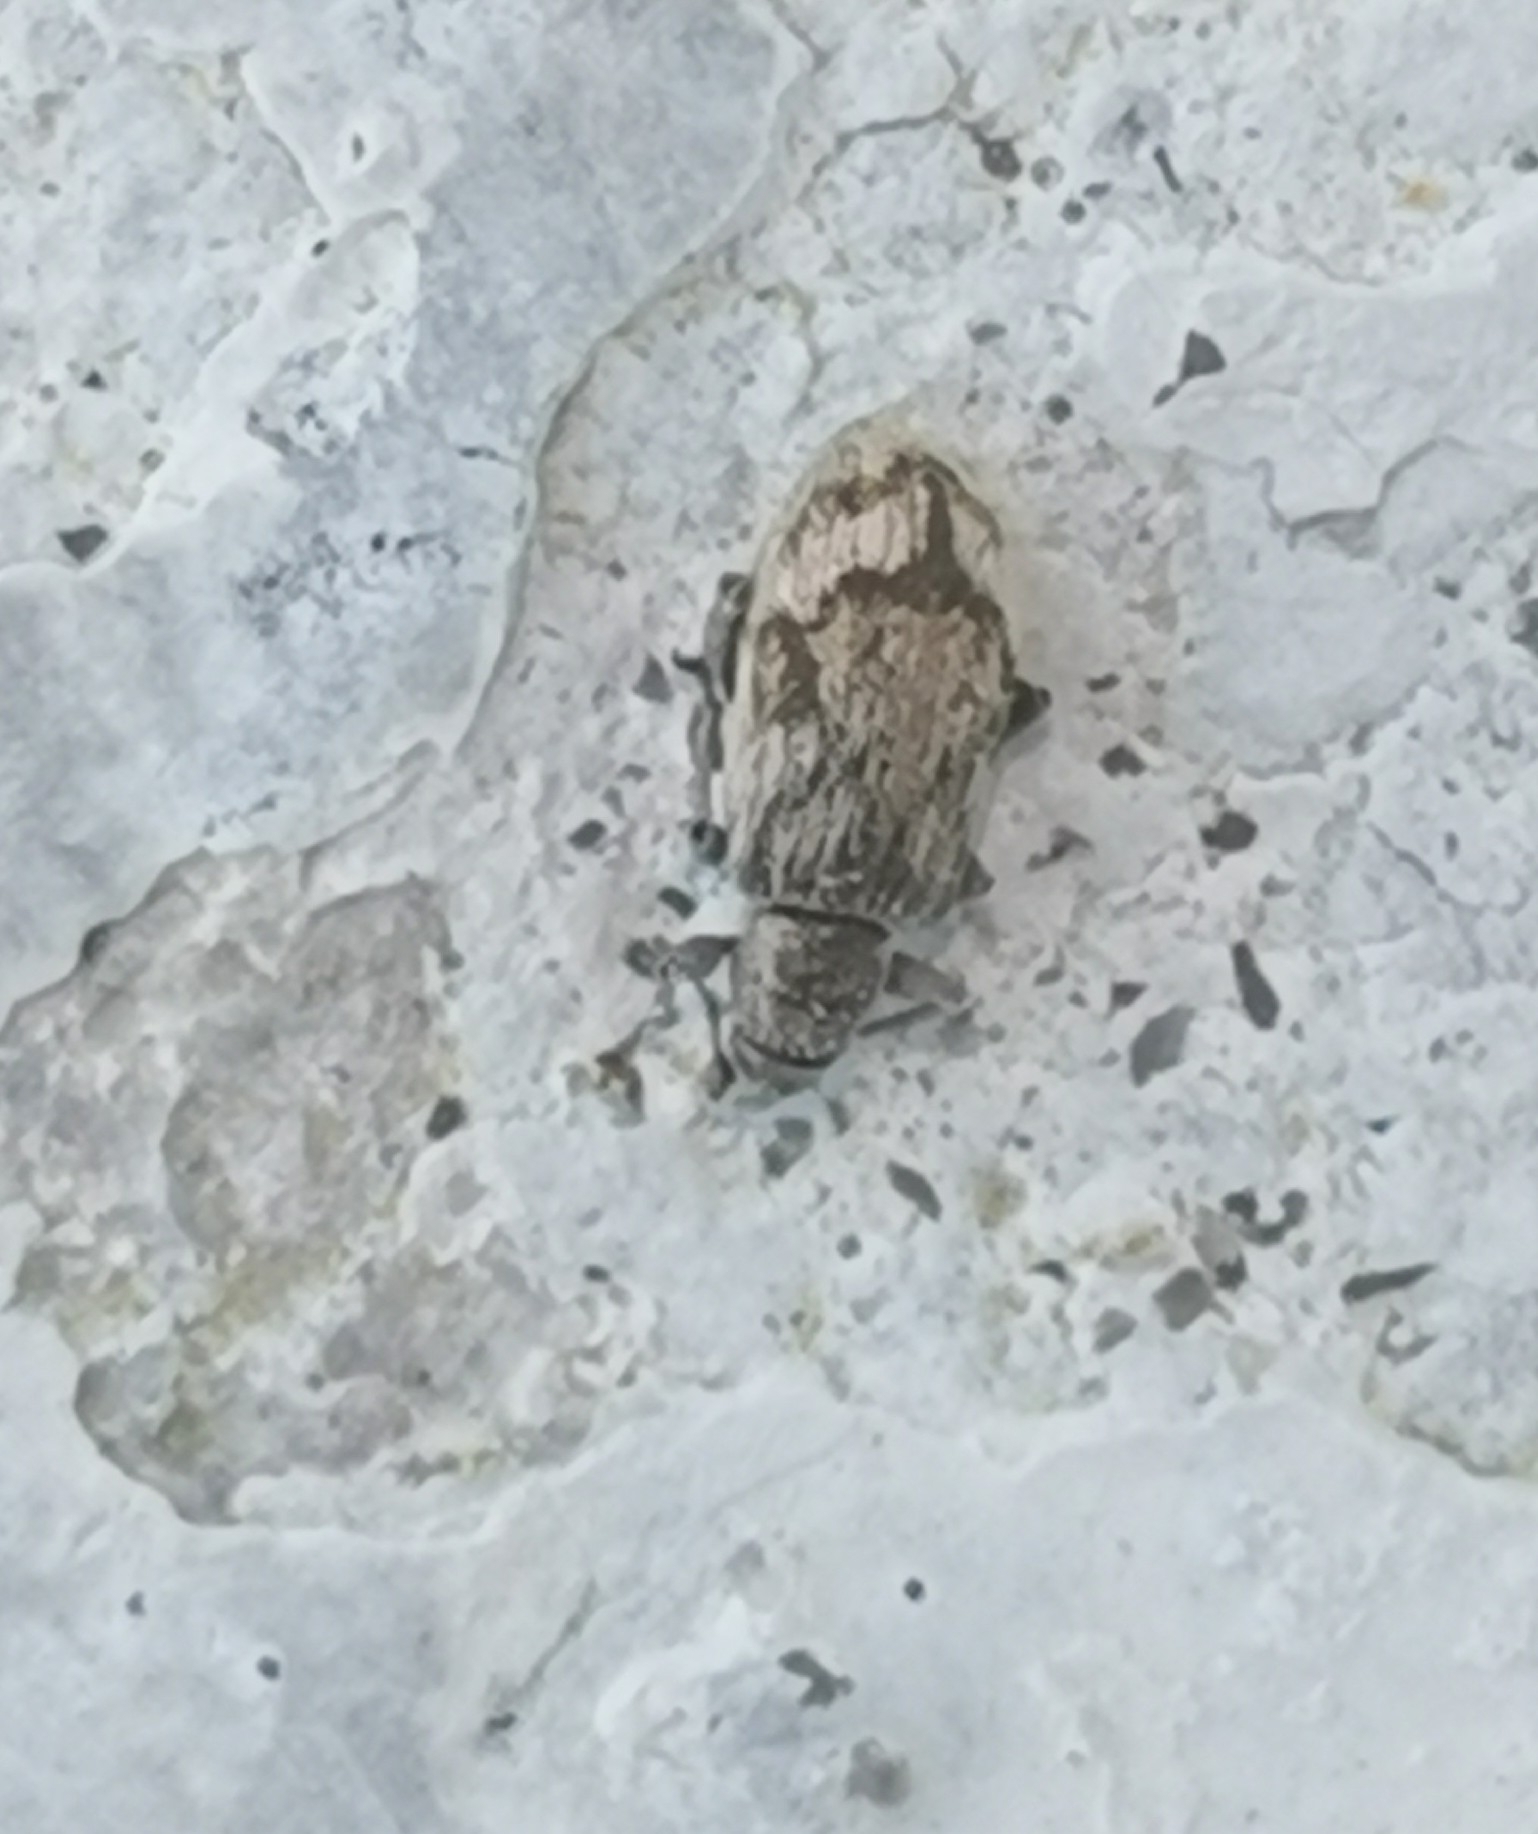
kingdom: Animalia
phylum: Arthropoda
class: Insecta
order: Coleoptera
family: Curculionidae
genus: Polydrusus
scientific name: Polydrusus tereticollis
